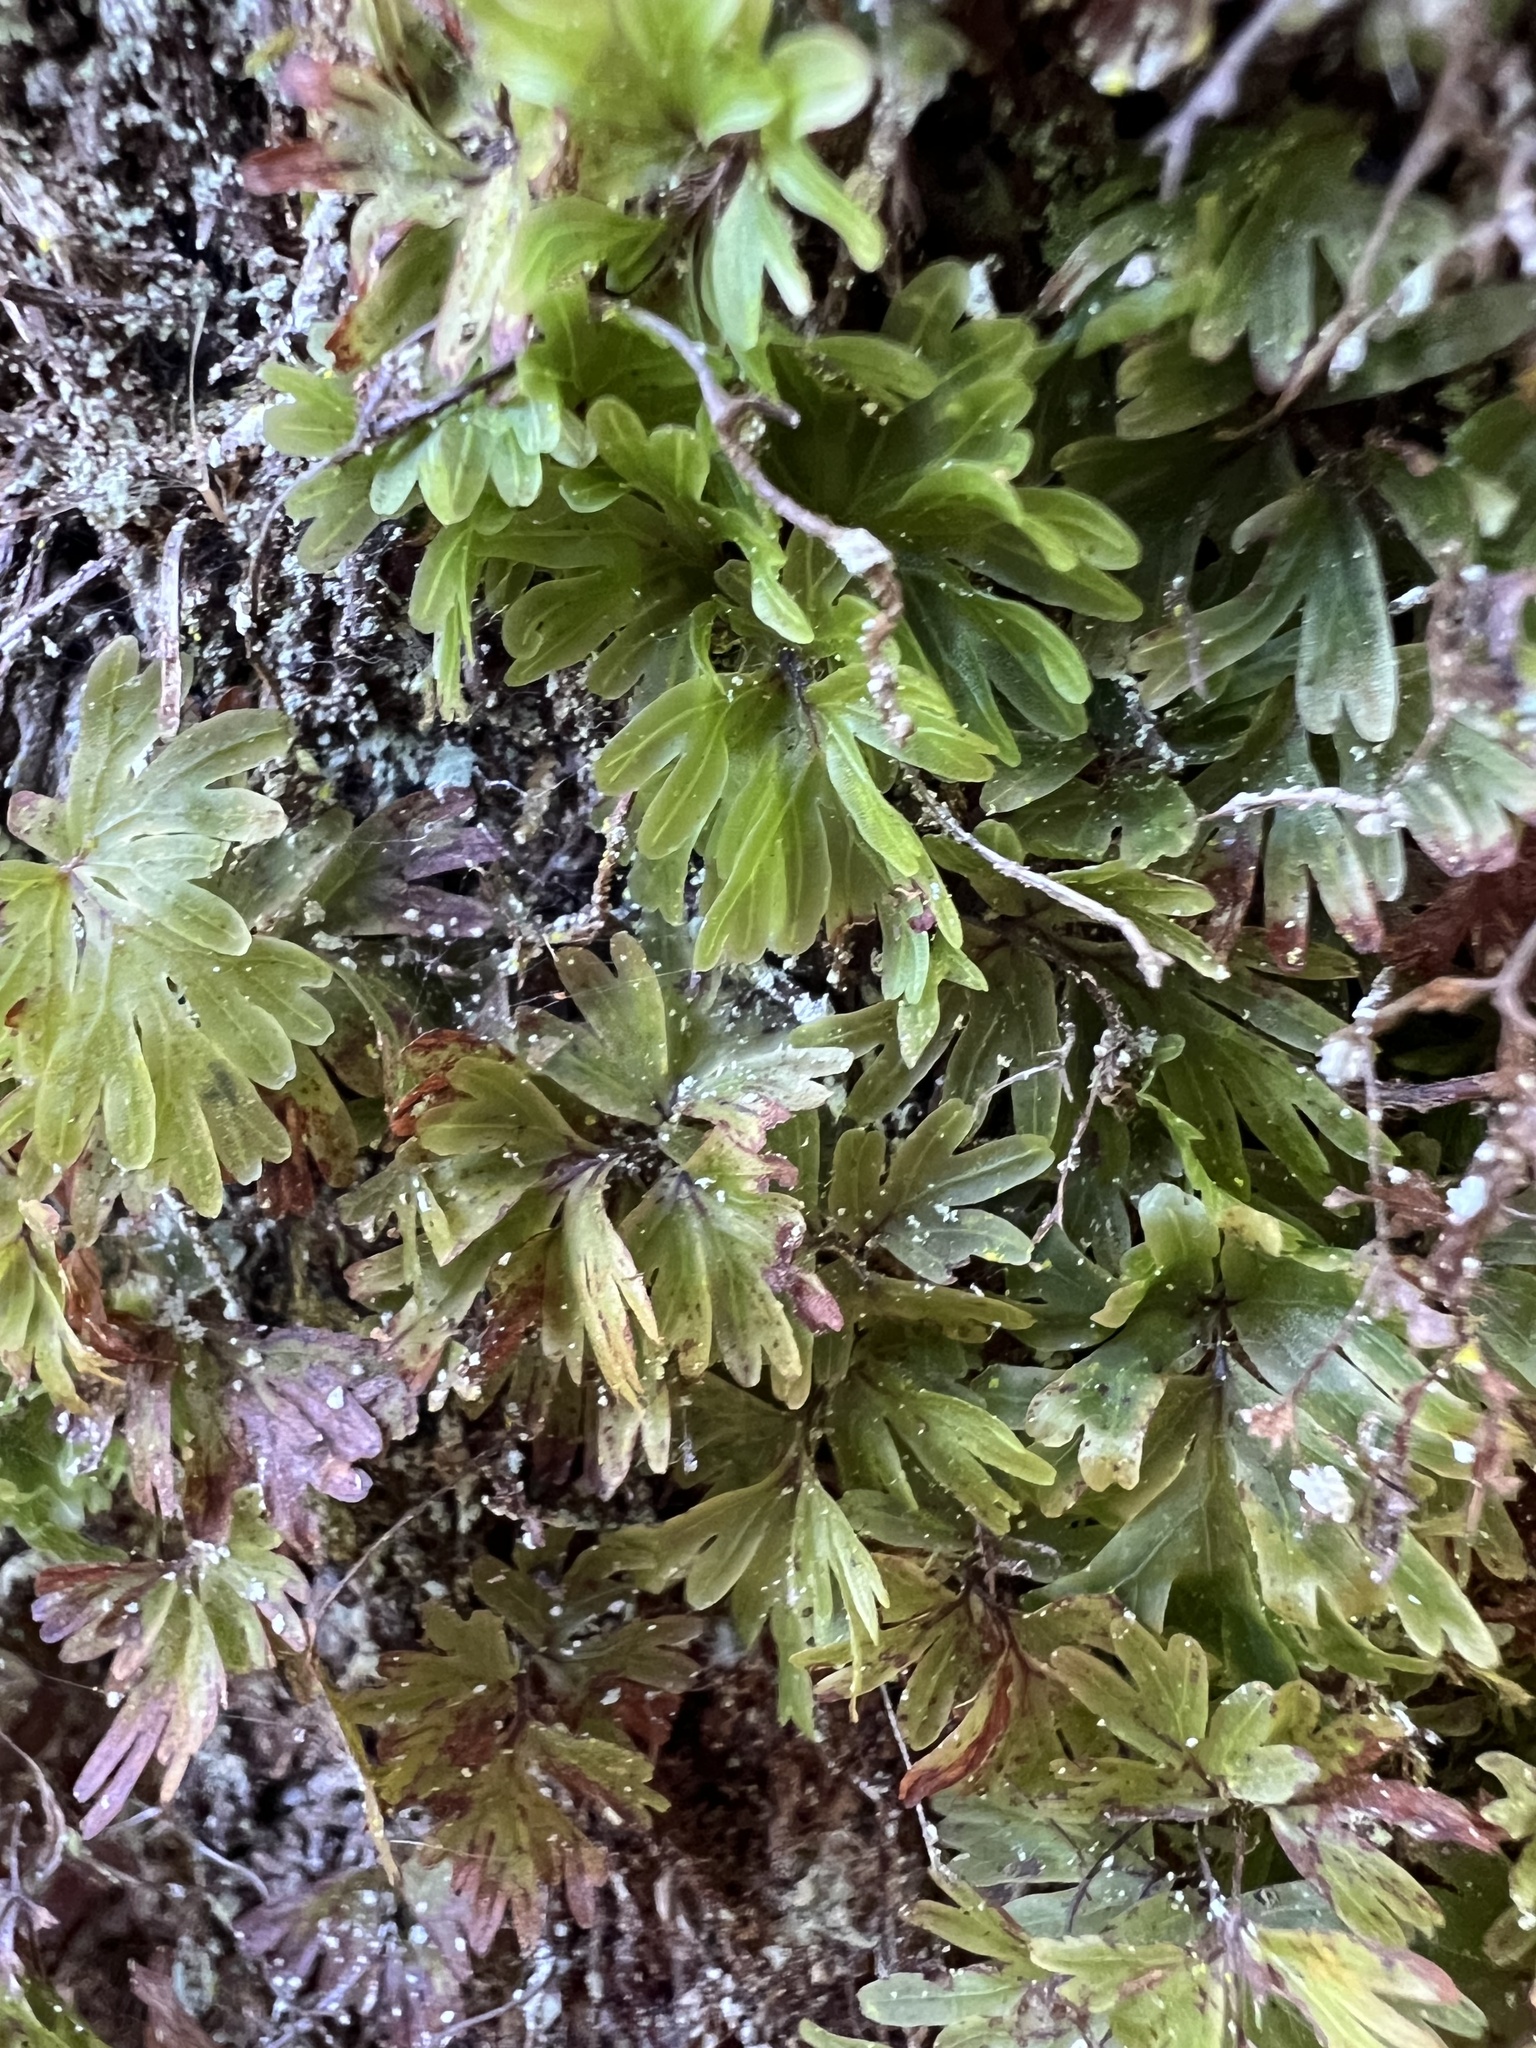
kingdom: Plantae
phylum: Tracheophyta
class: Polypodiopsida
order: Hymenophyllales
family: Hymenophyllaceae
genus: Hymenophyllum
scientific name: Hymenophyllum flabellatum
